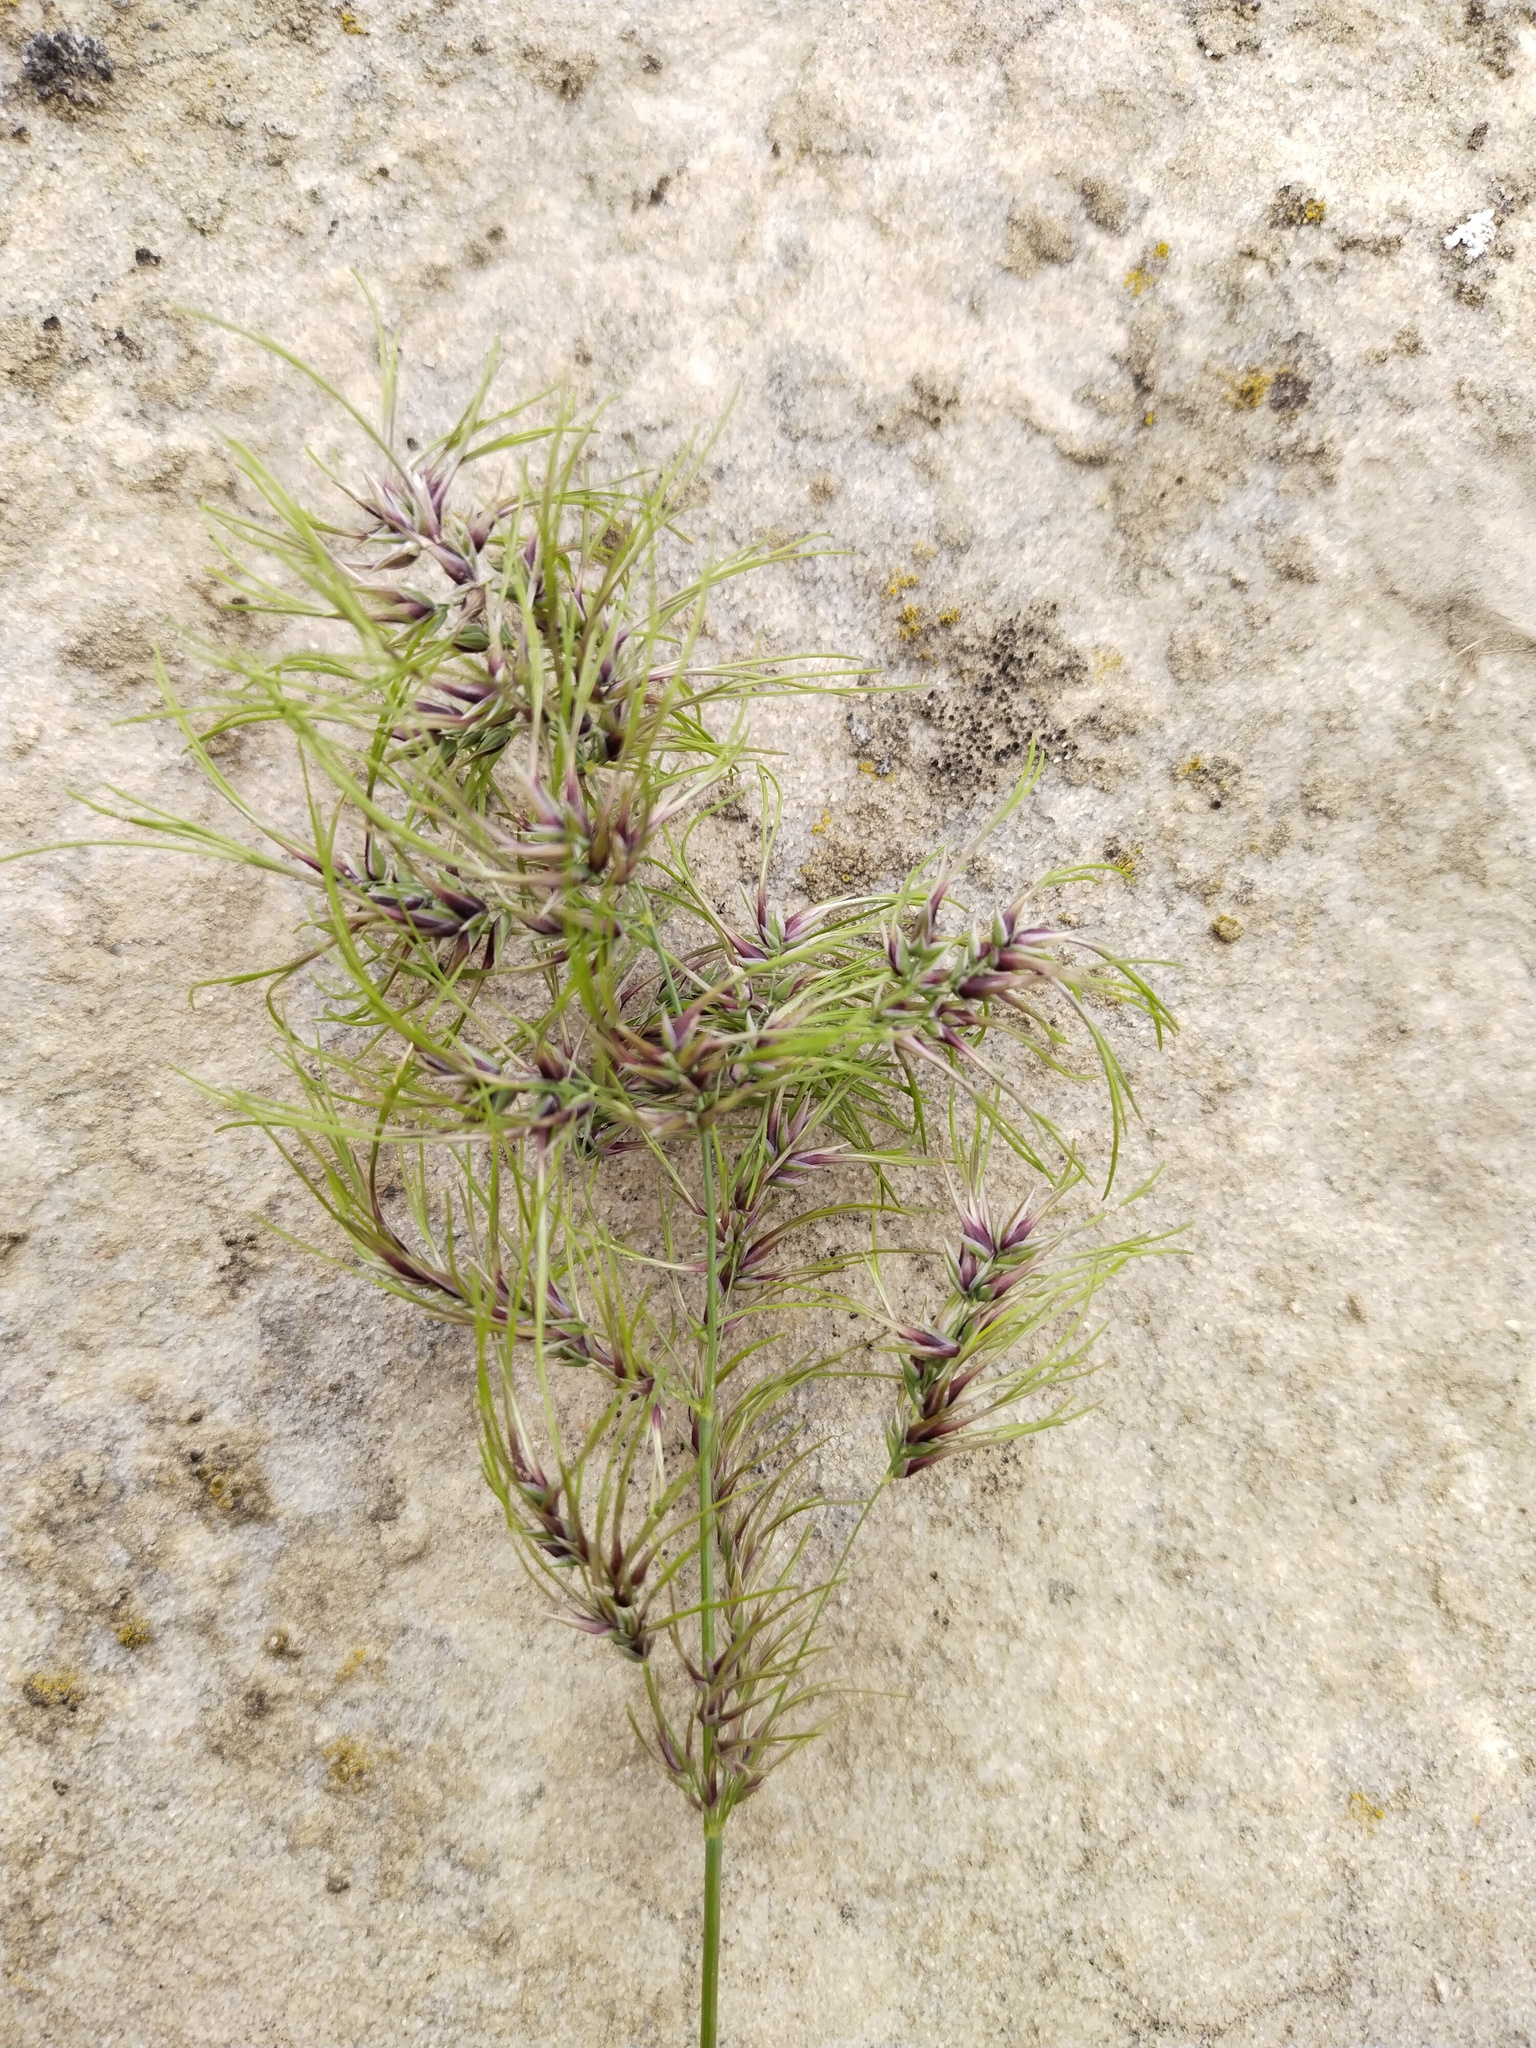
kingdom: Plantae
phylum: Tracheophyta
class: Liliopsida
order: Poales
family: Poaceae
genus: Poa
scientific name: Poa bulbosa
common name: Bulbous bluegrass
